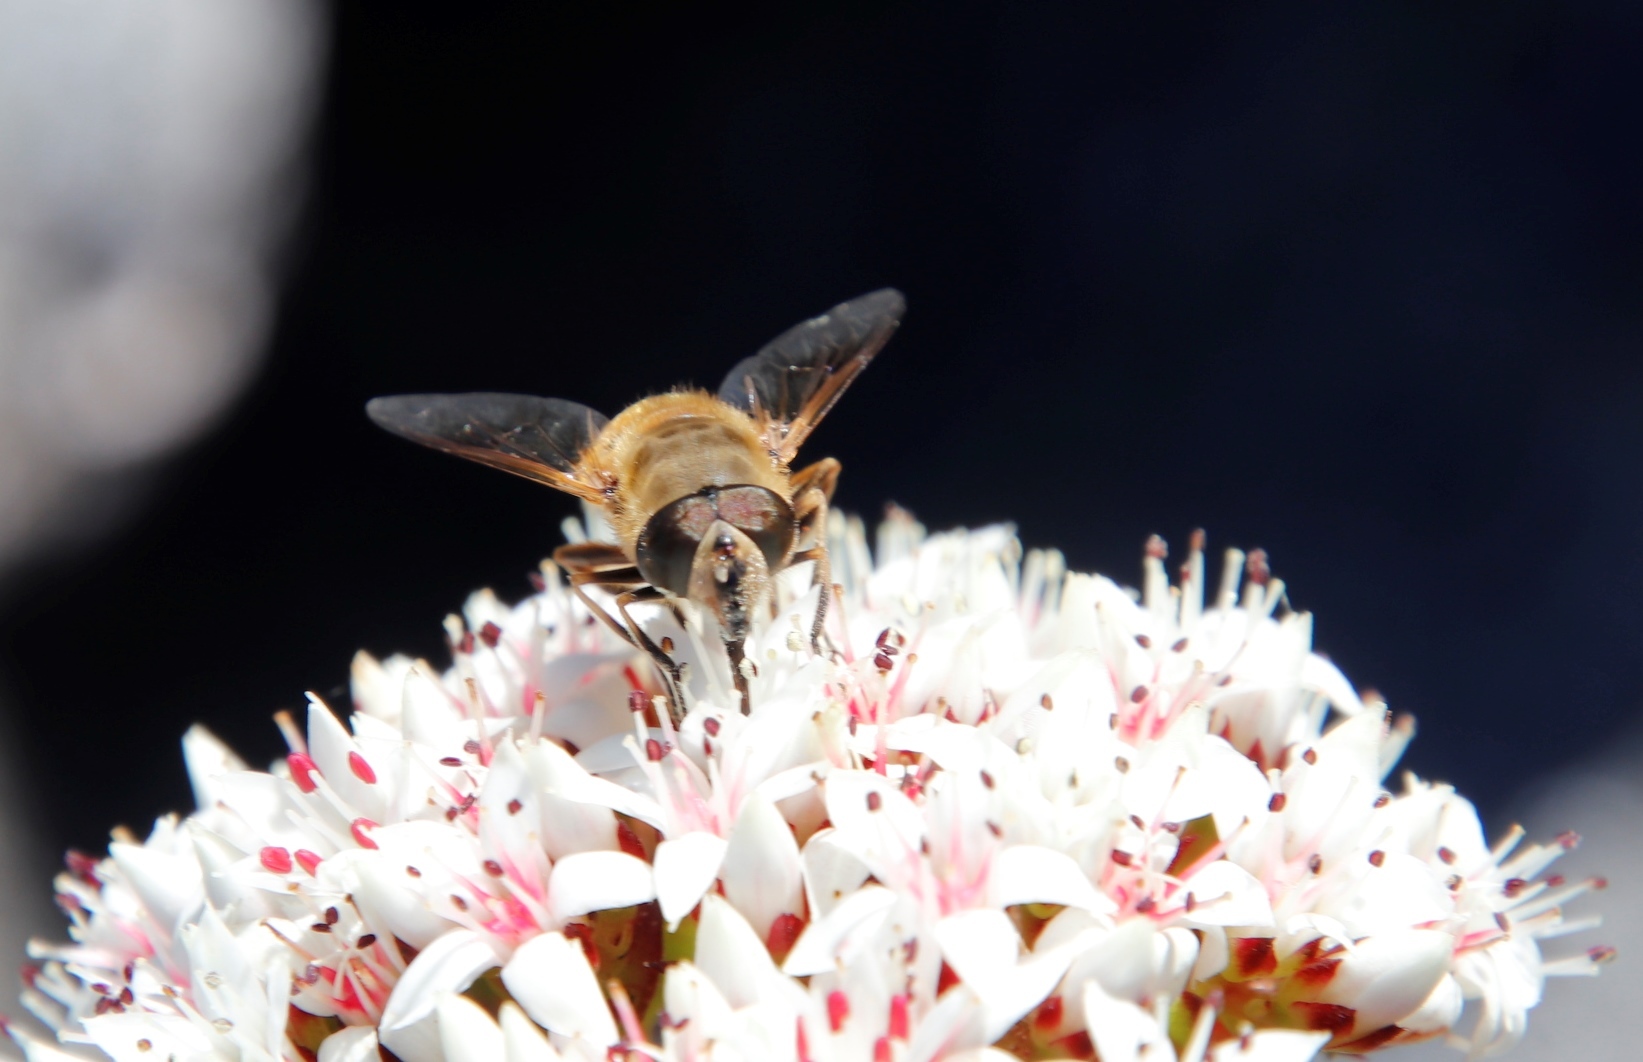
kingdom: Animalia
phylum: Arthropoda
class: Insecta
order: Diptera
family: Syrphidae
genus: Eristalis
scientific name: Eristalis tenax
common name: Drone fly
